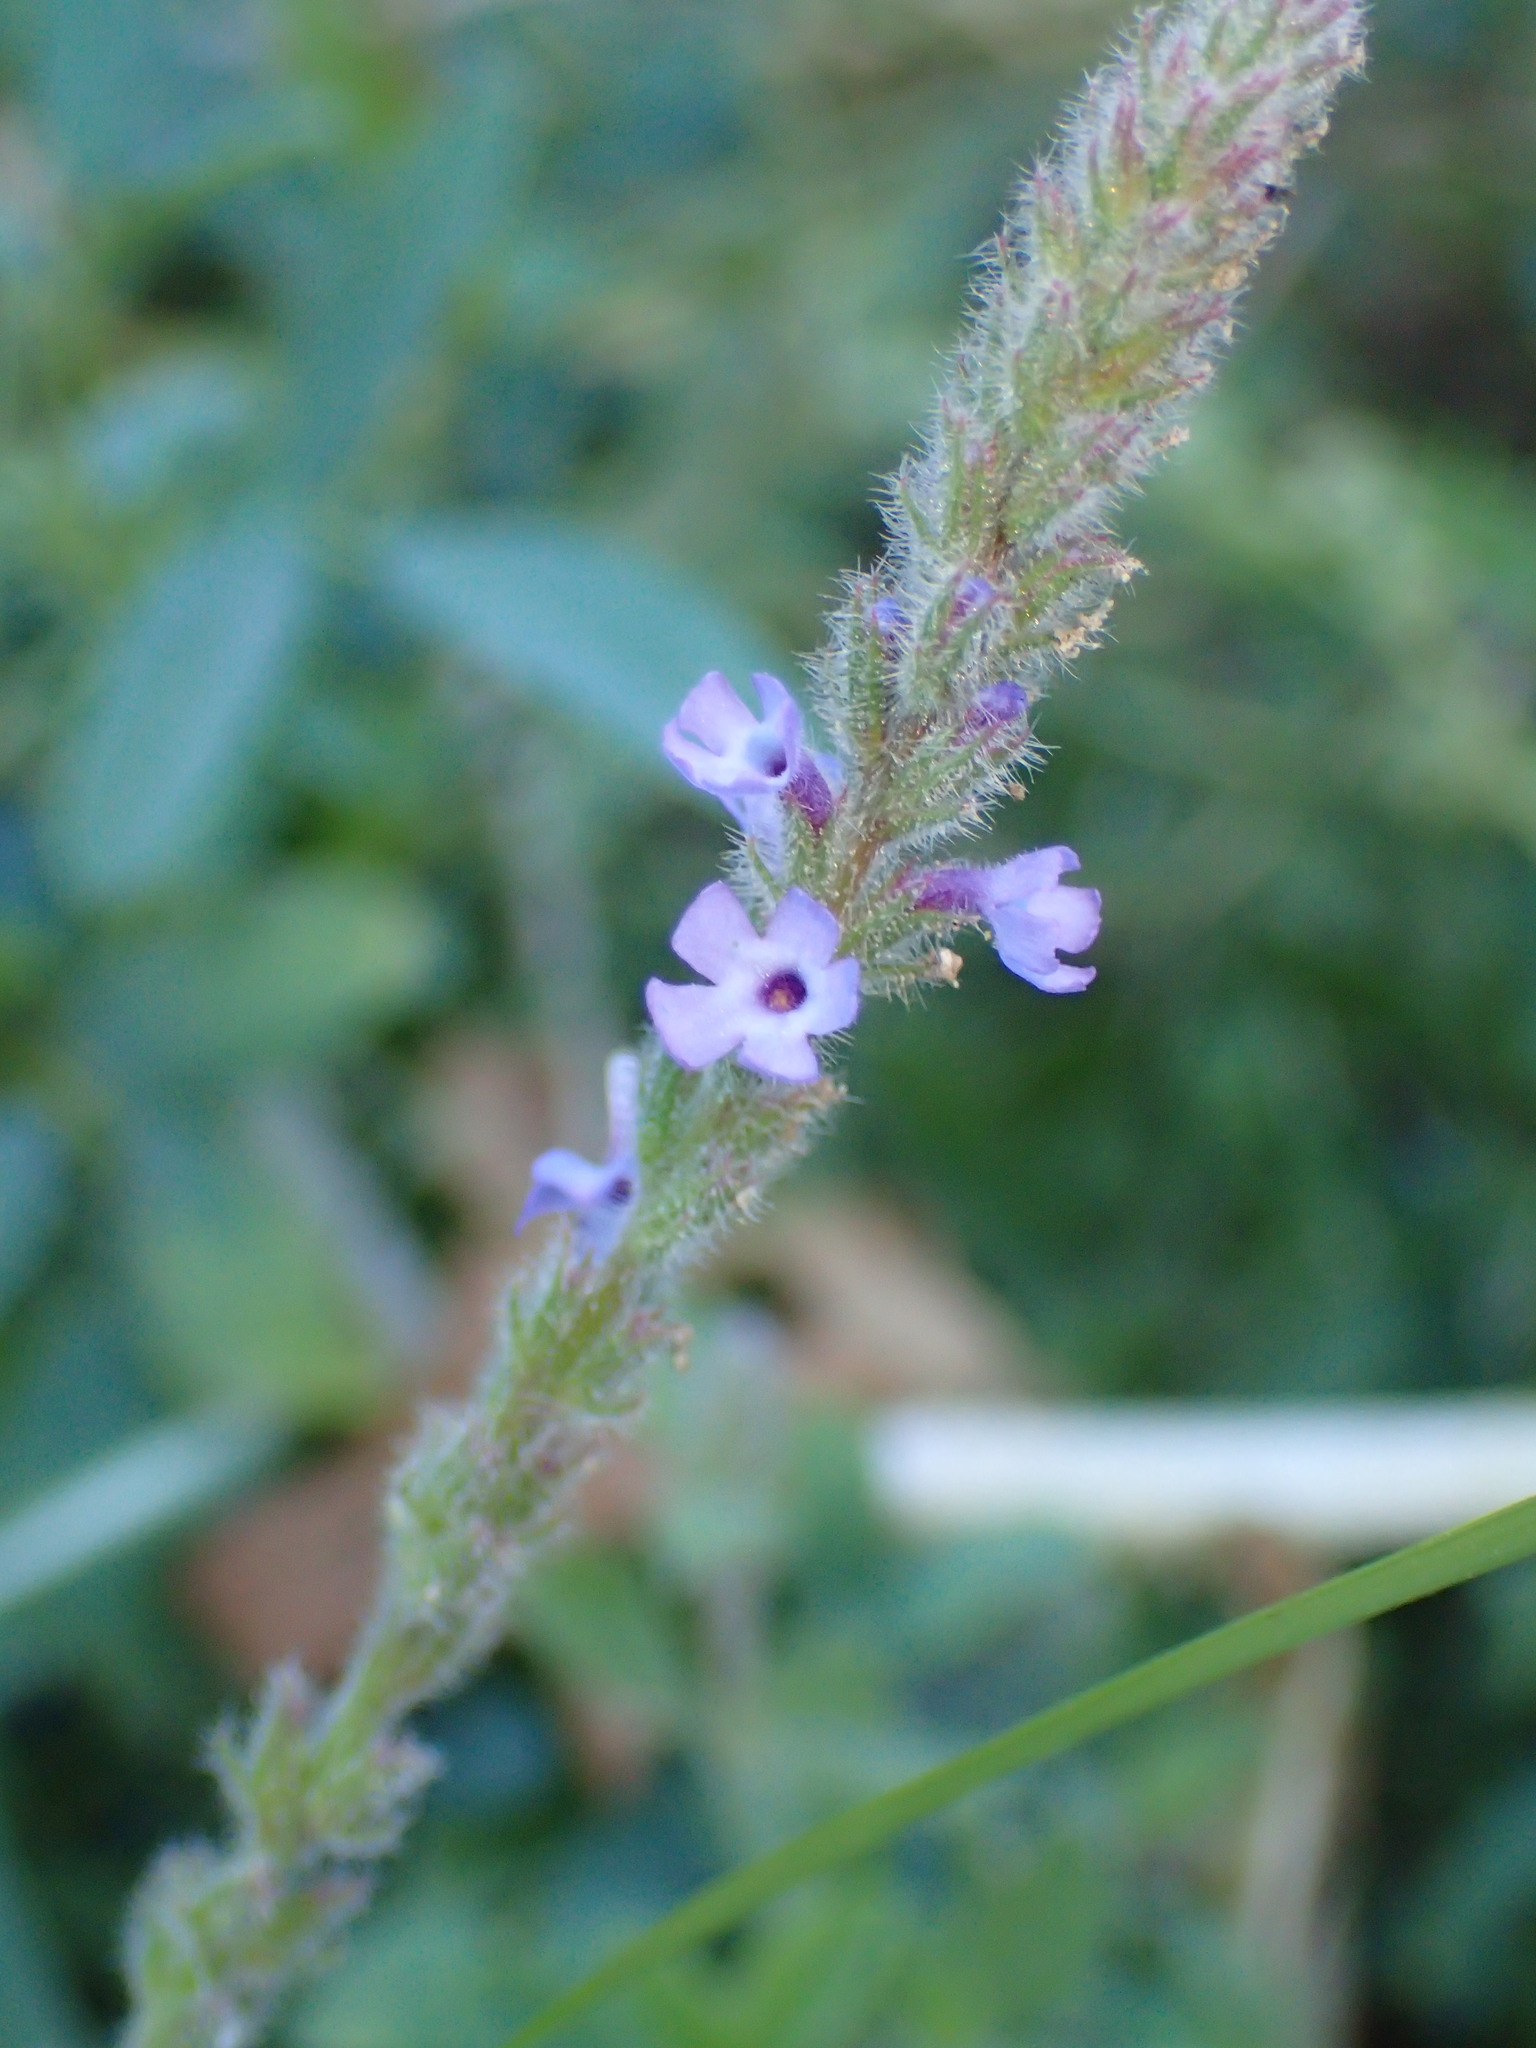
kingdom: Plantae
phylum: Tracheophyta
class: Magnoliopsida
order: Lamiales
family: Verbenaceae
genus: Verbena
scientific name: Verbena lasiostachys
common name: Vervain
